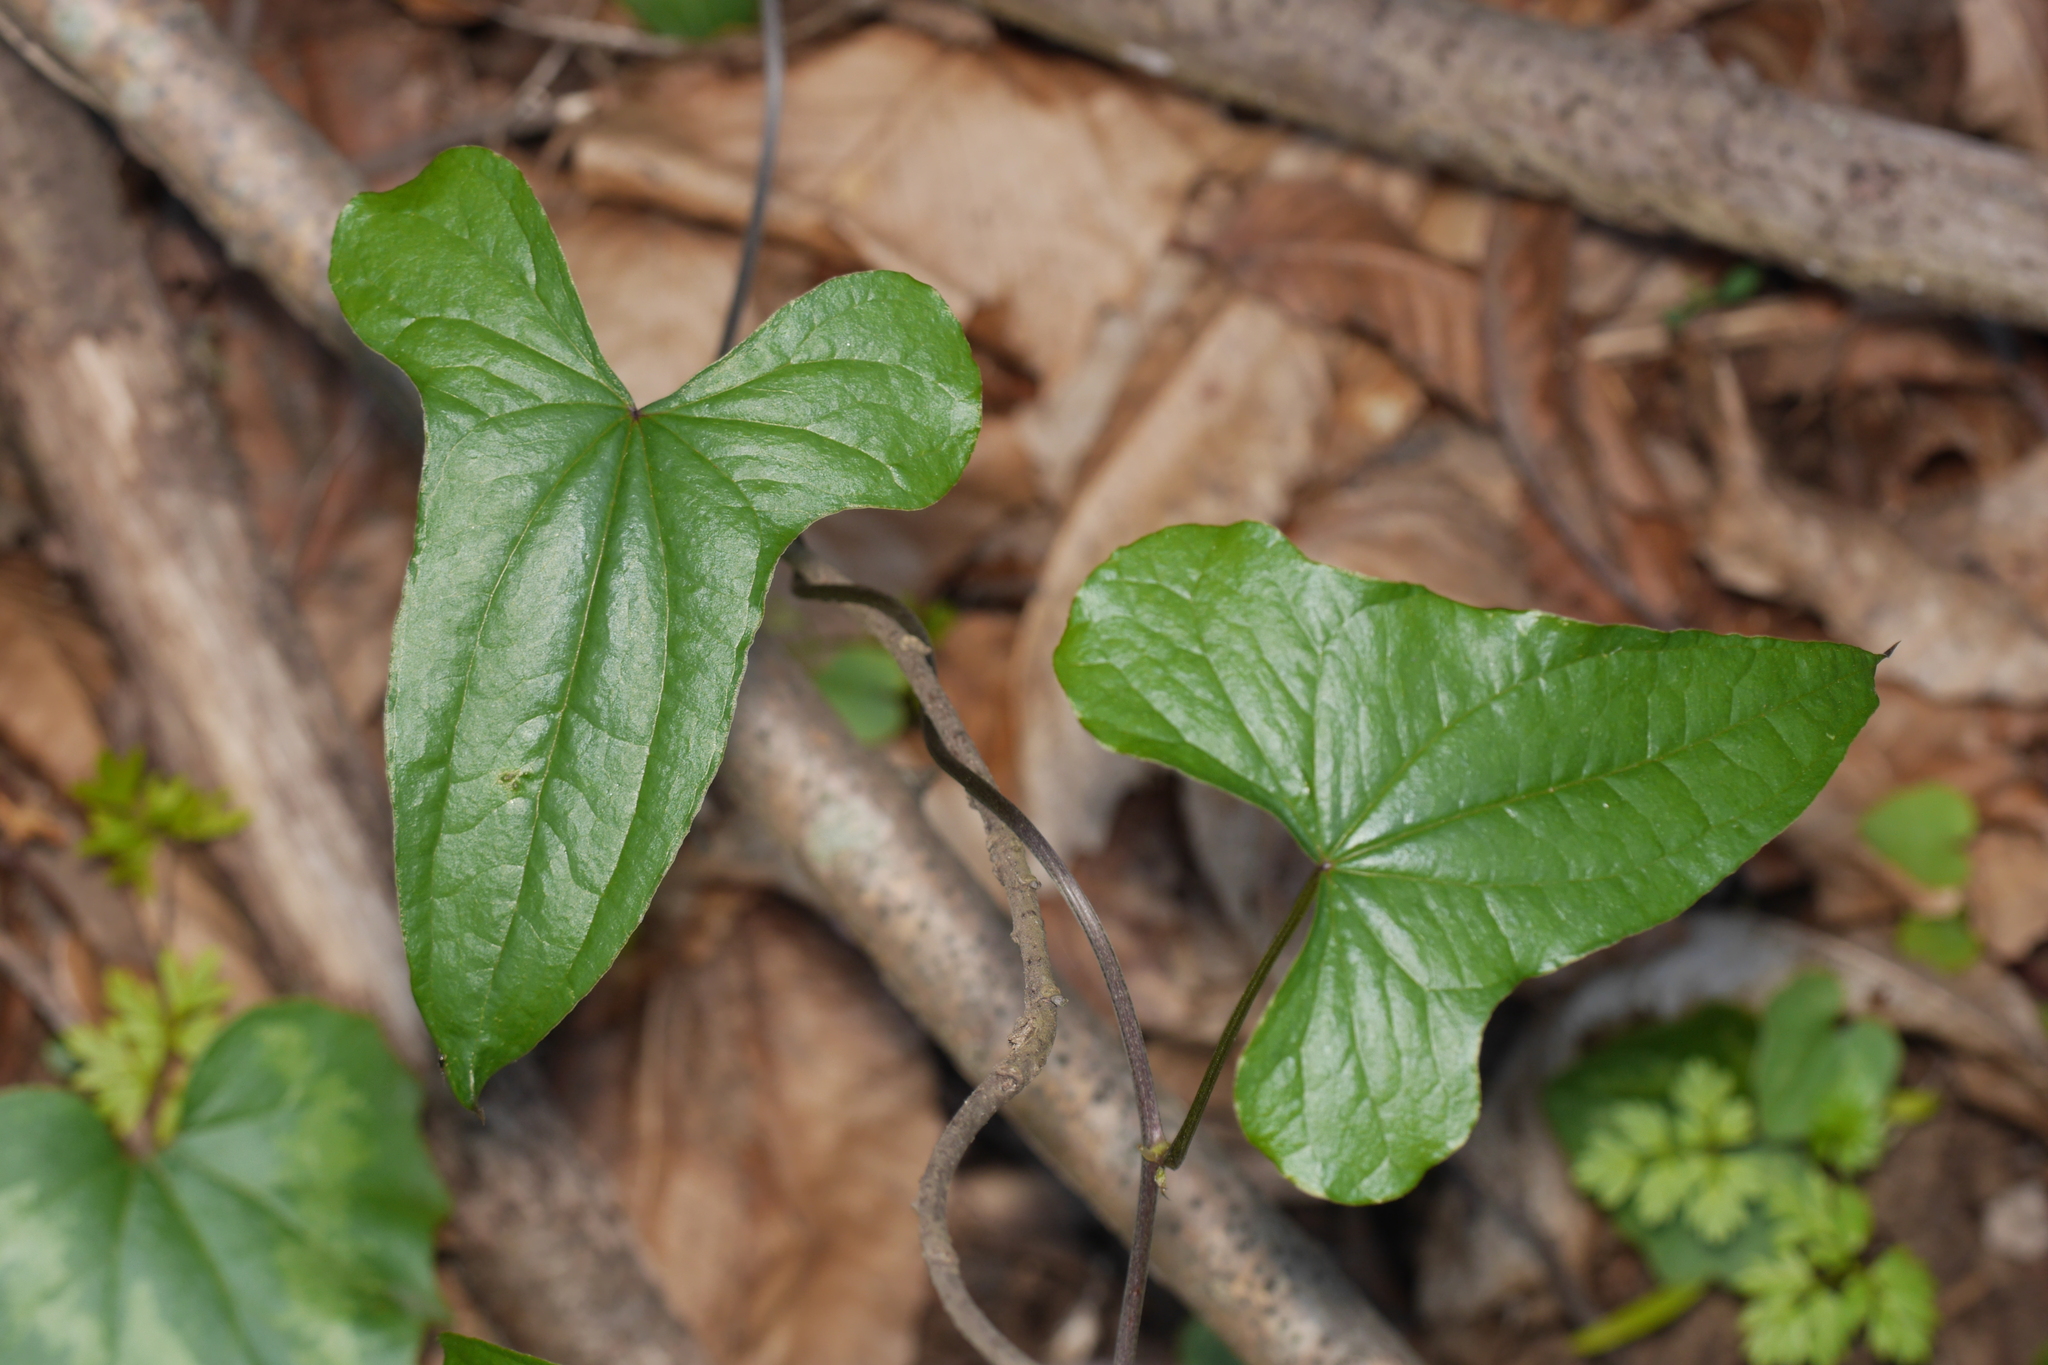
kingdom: Plantae
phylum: Tracheophyta
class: Liliopsida
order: Dioscoreales
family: Dioscoreaceae
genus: Dioscorea
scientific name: Dioscorea communis
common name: Black-bindweed
